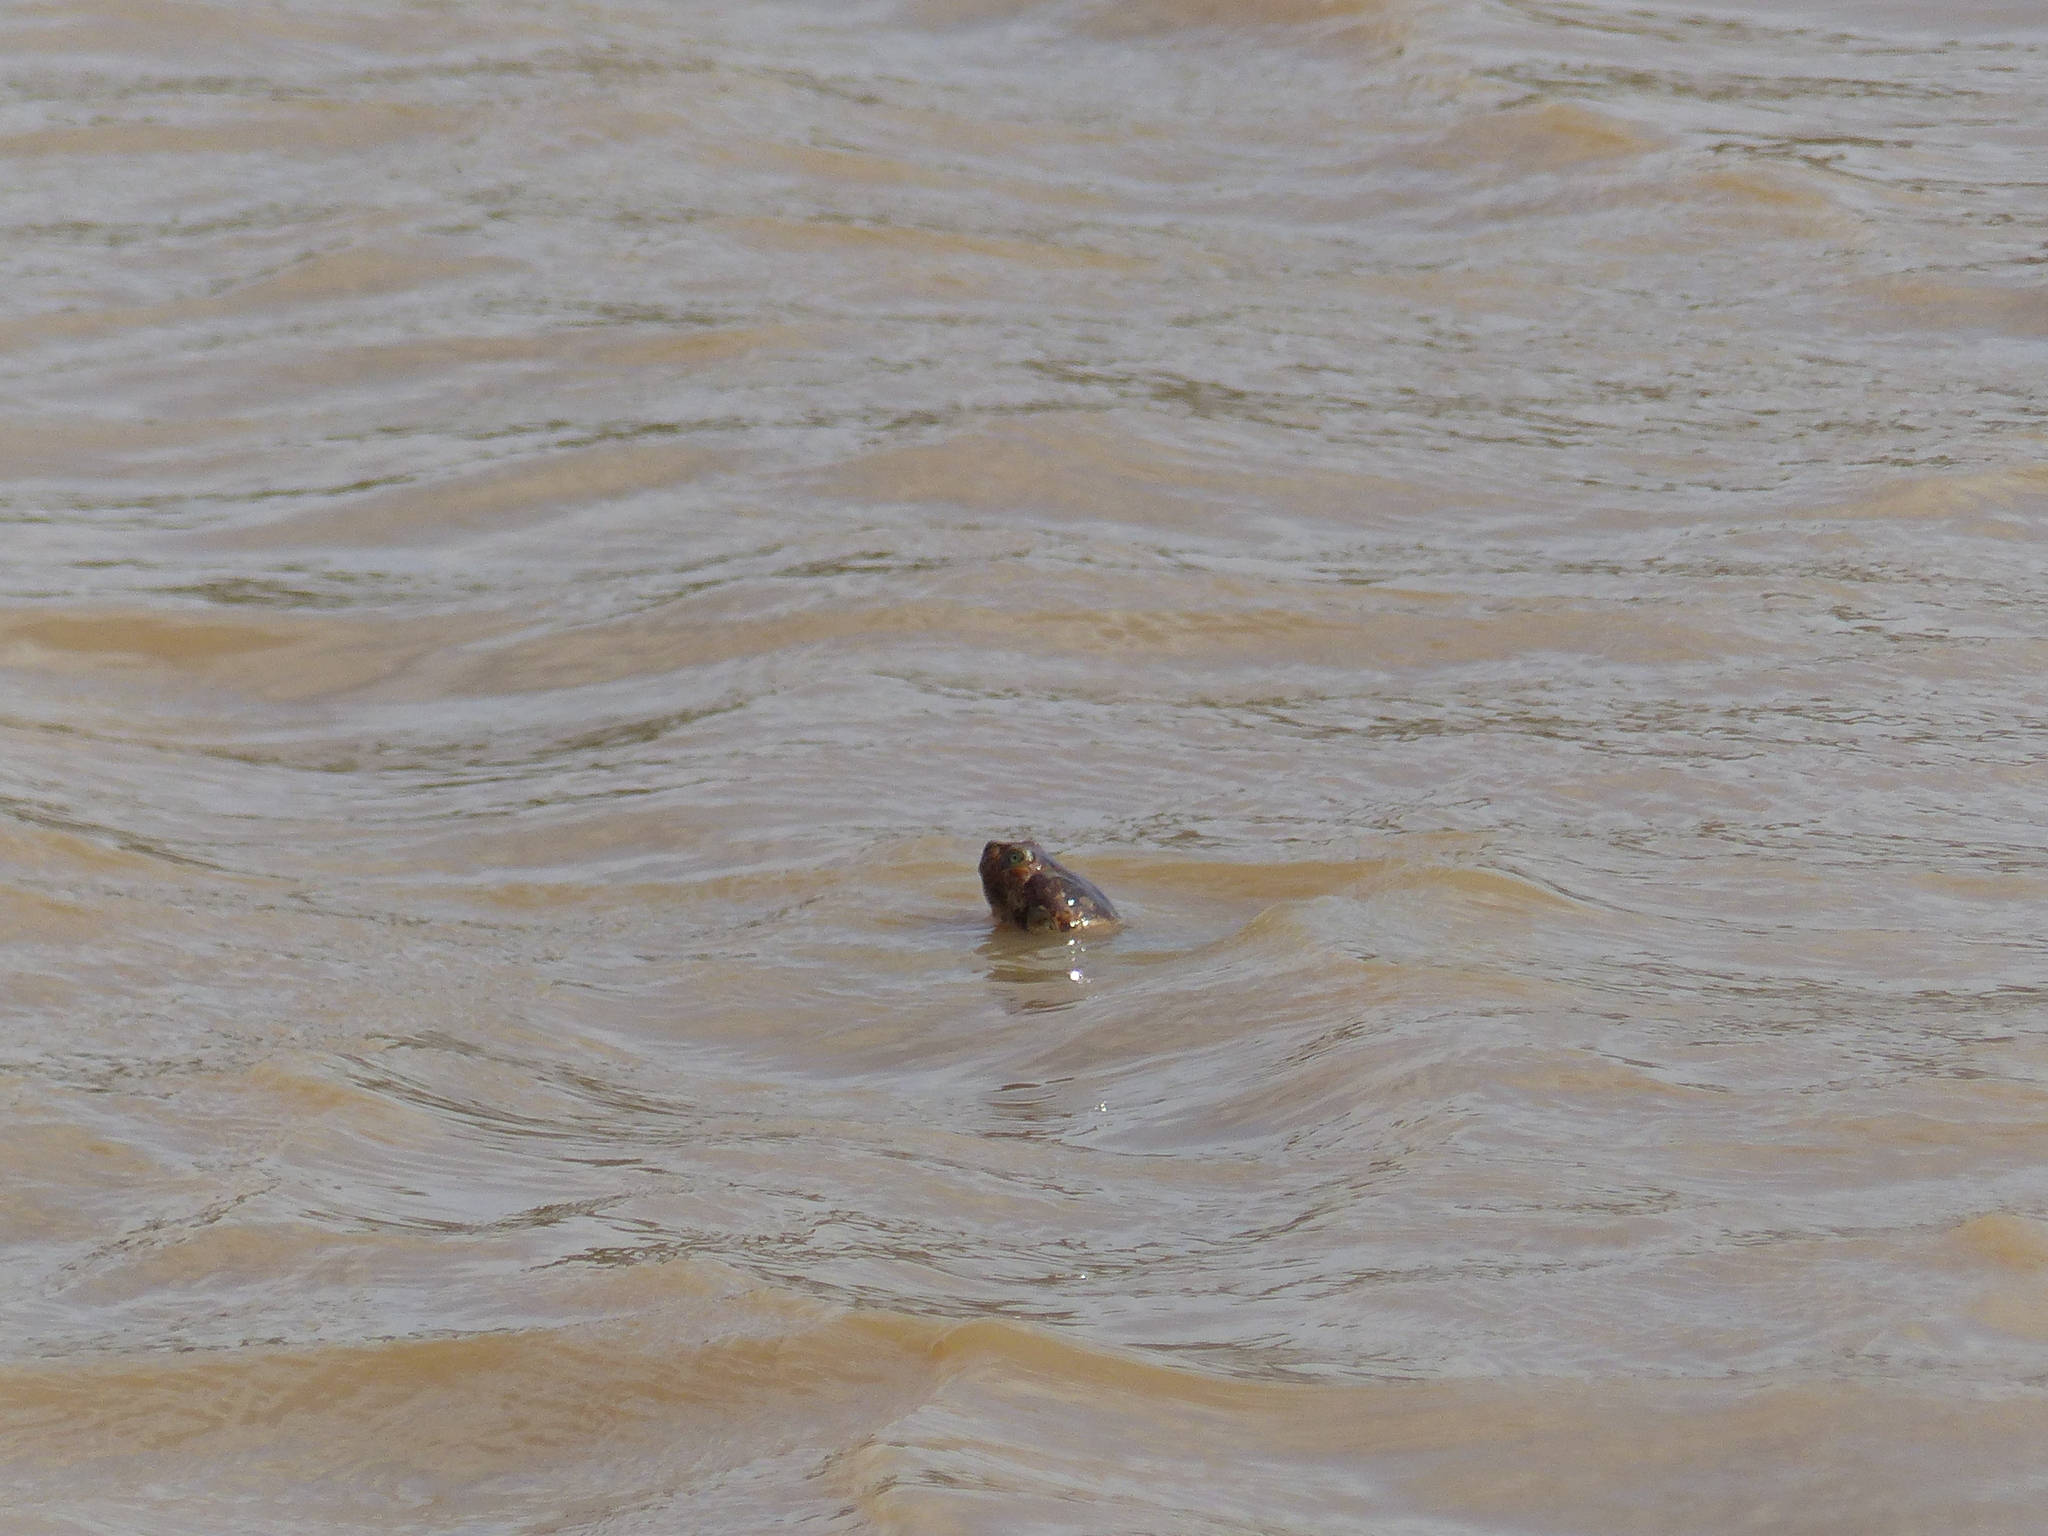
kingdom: Animalia
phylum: Chordata
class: Testudines
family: Podocnemididae
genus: Podocnemis
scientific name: Podocnemis vogli
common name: Savanna side-necked turtle
